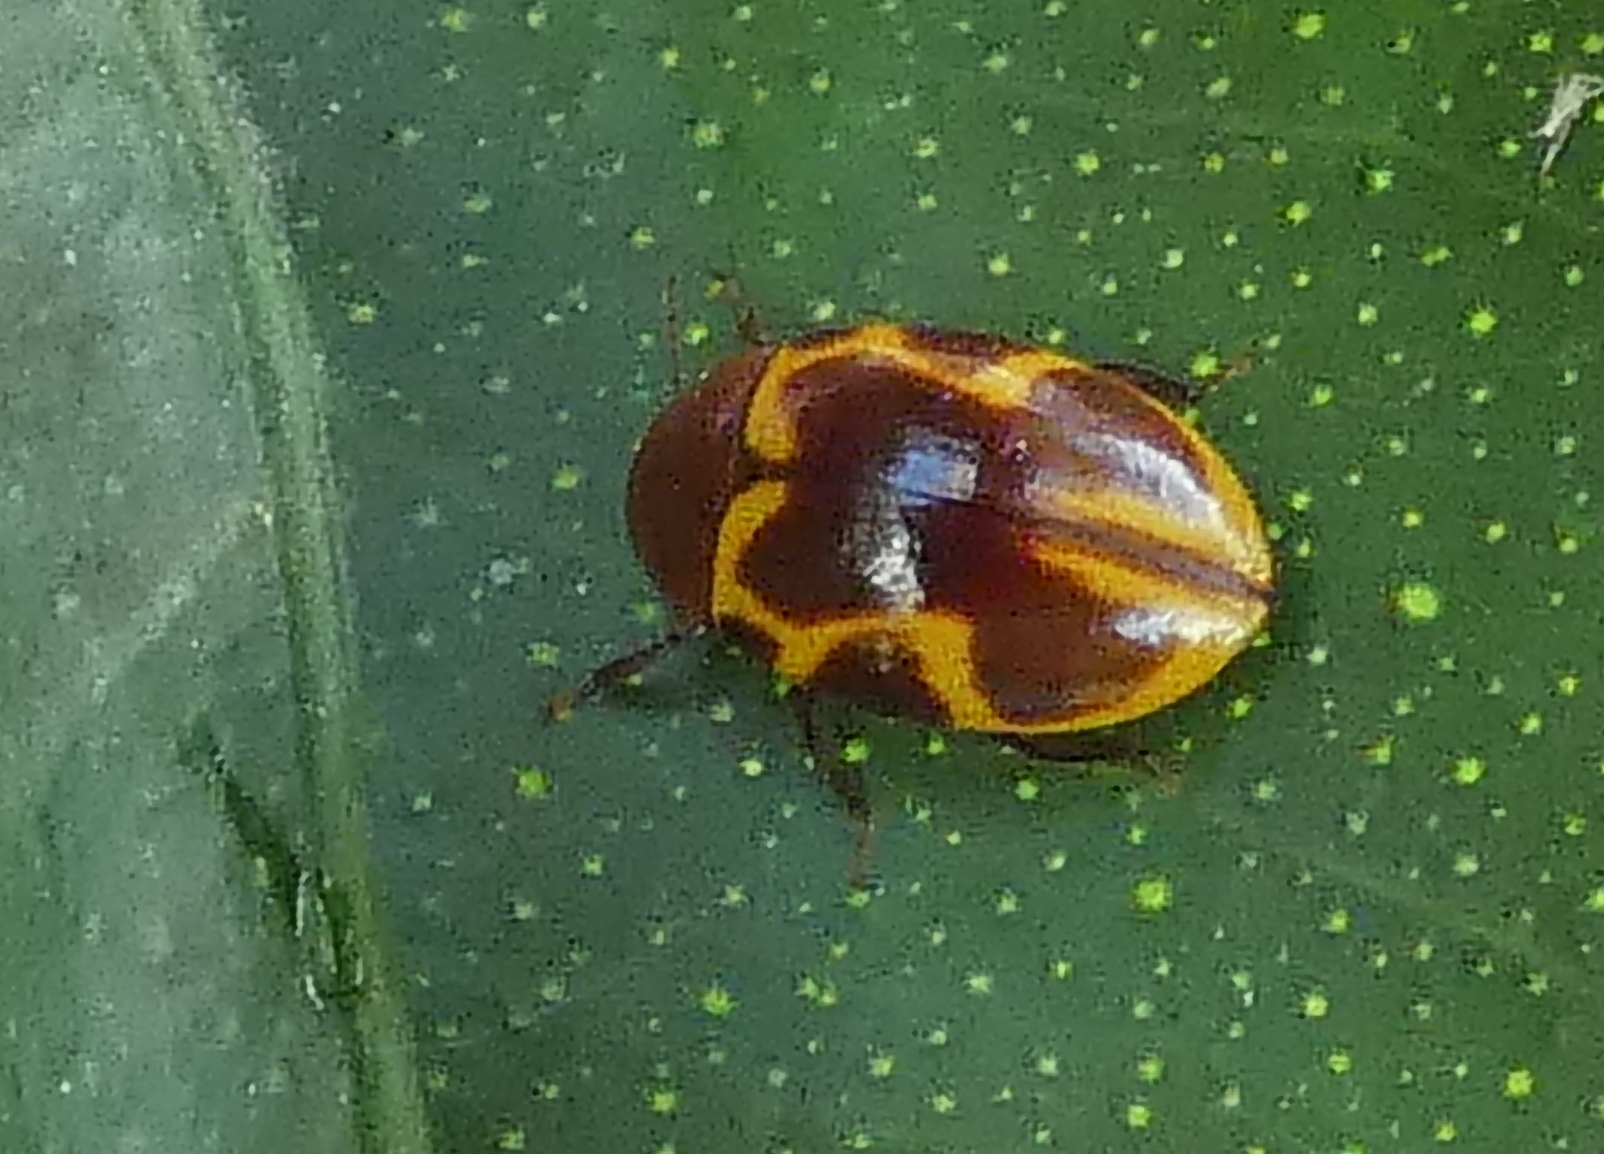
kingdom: Animalia
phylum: Arthropoda
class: Insecta
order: Coleoptera
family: Chelonariidae
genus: Chelonarium
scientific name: Chelonarium
